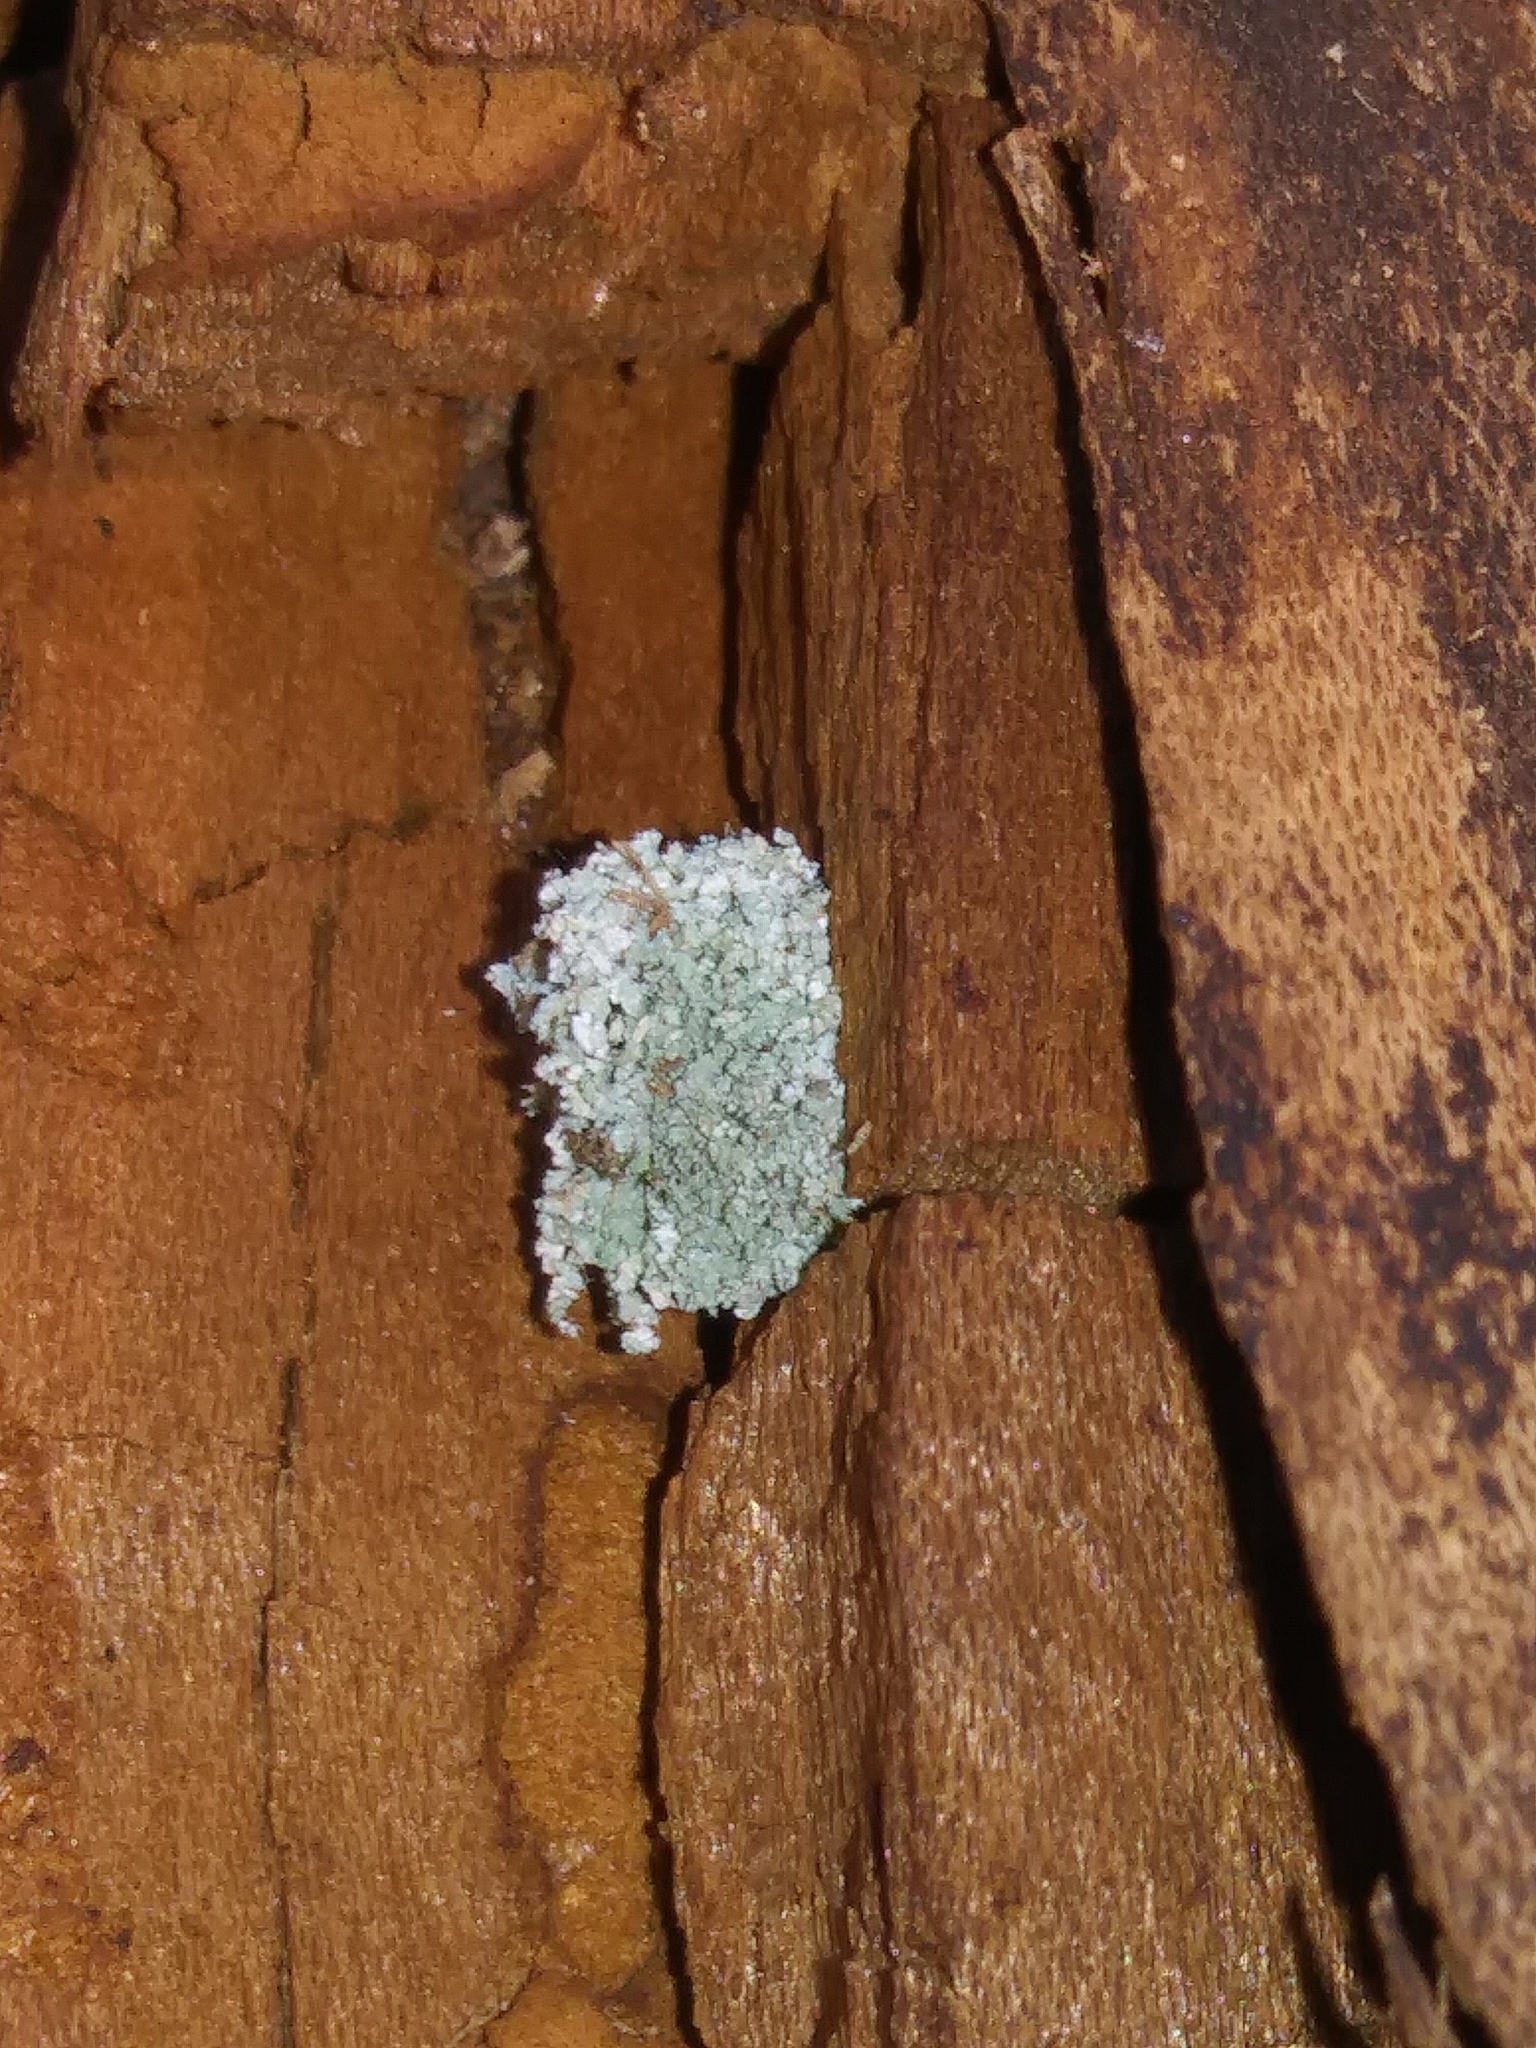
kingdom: Animalia
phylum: Arthropoda
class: Insecta
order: Neuroptera
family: Chrysopidae
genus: Leucochrysa
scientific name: Leucochrysa pavida
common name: Lichen-carrying green lacewing
